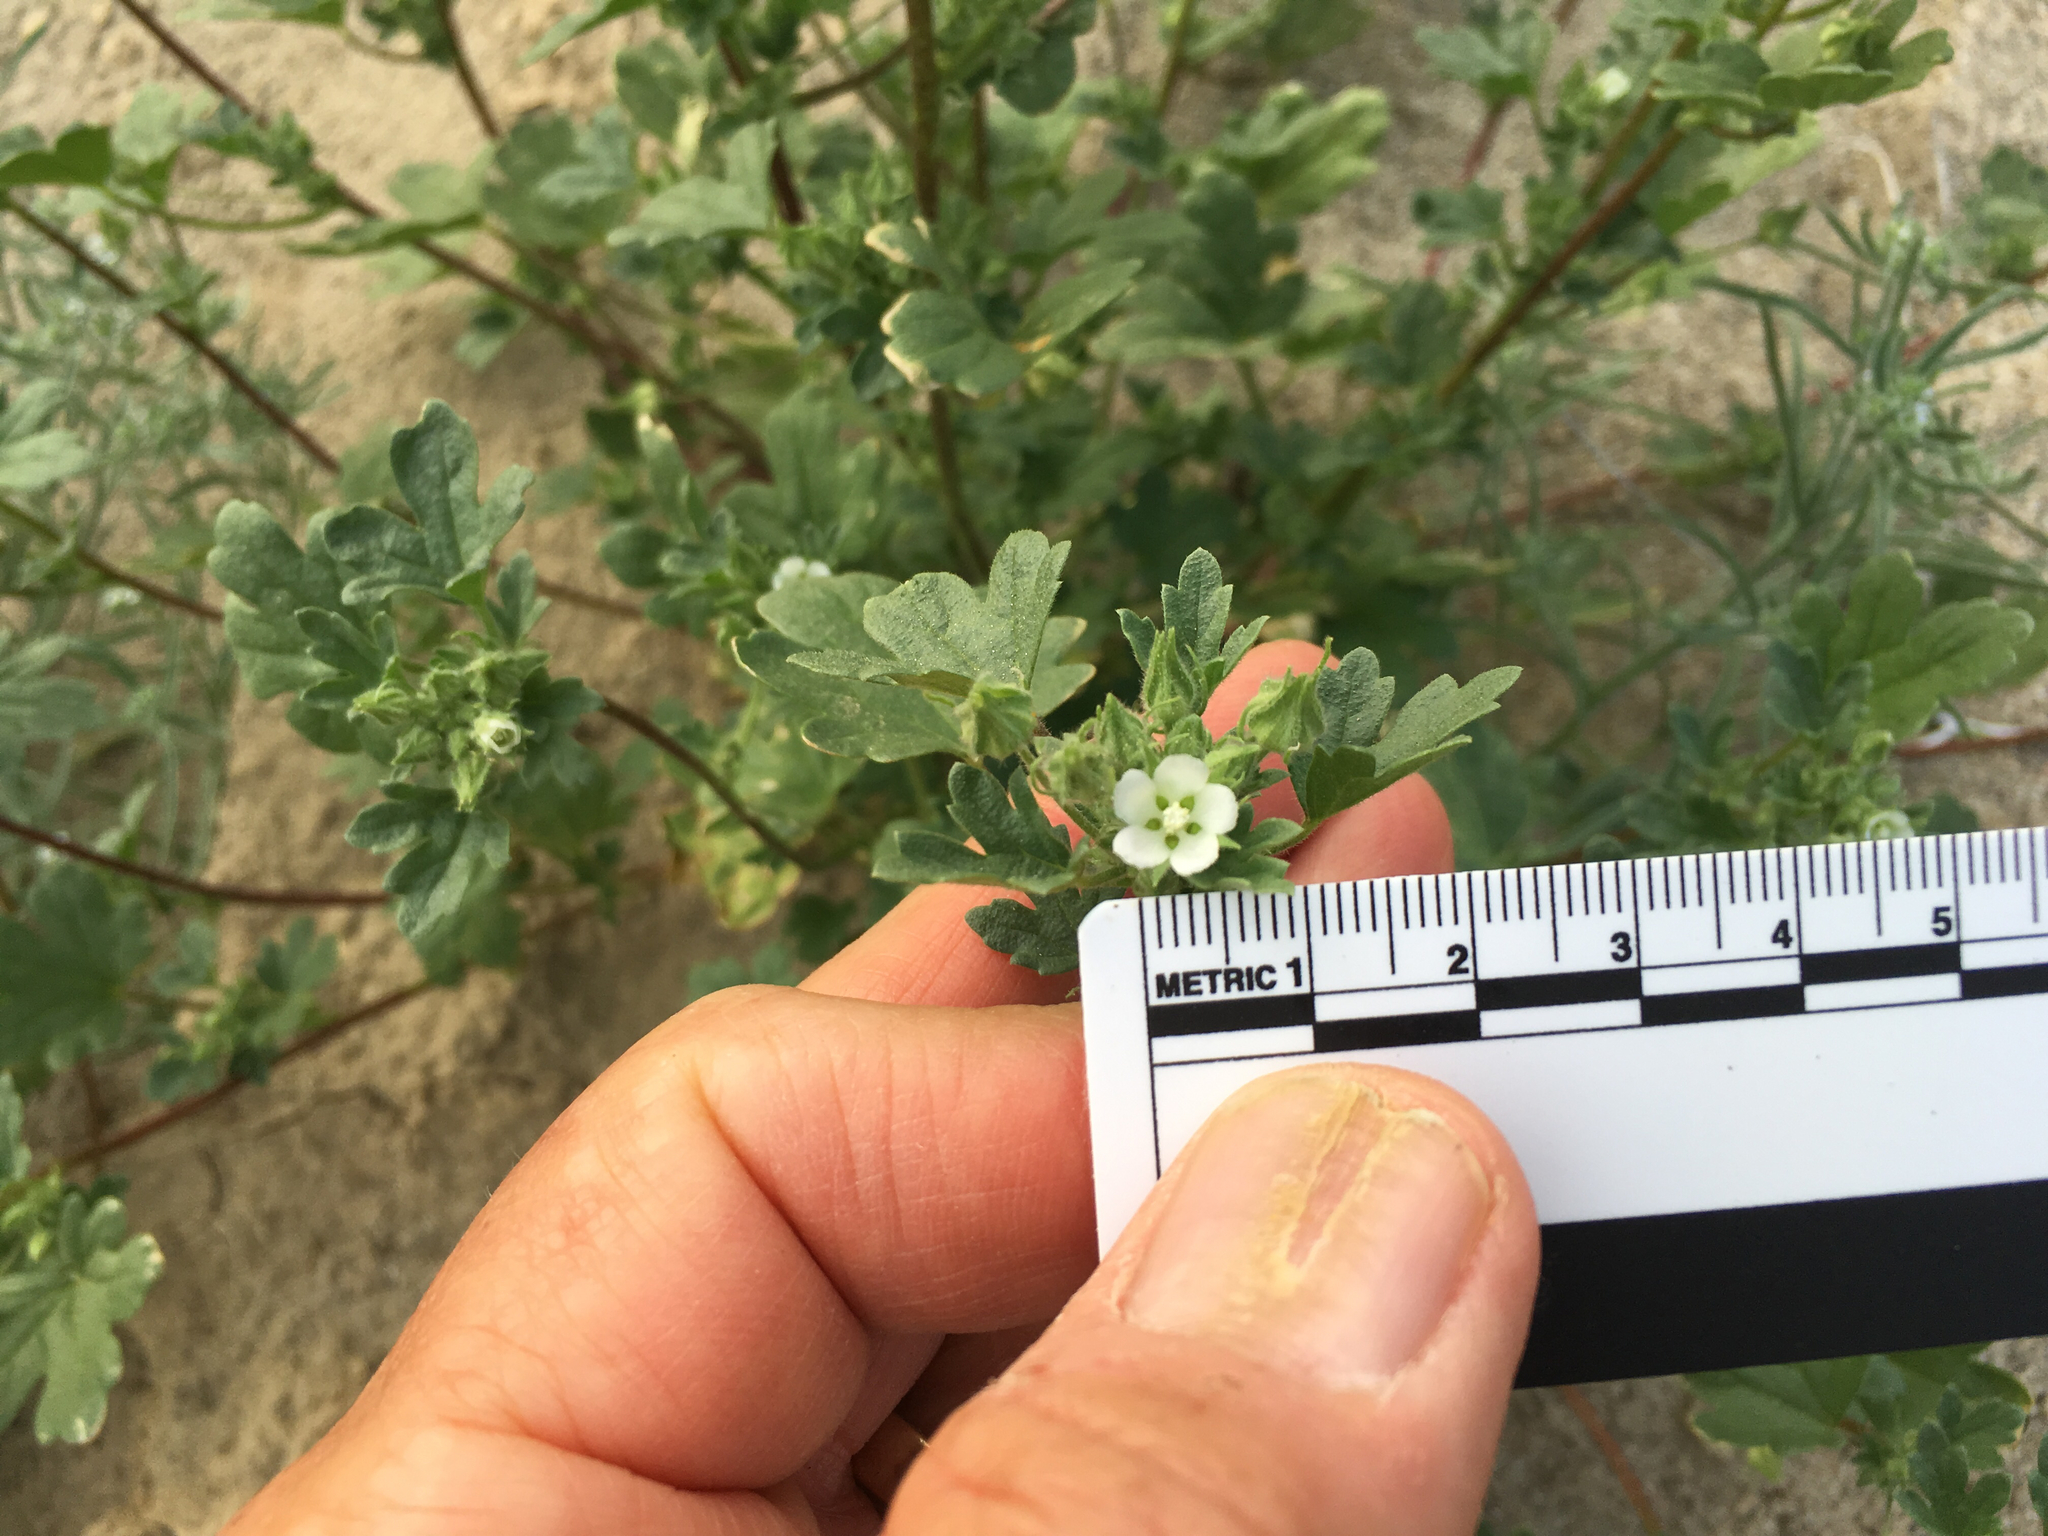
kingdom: Plantae
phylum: Tracheophyta
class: Magnoliopsida
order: Malvales
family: Malvaceae
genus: Eremalche
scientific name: Eremalche exilis
